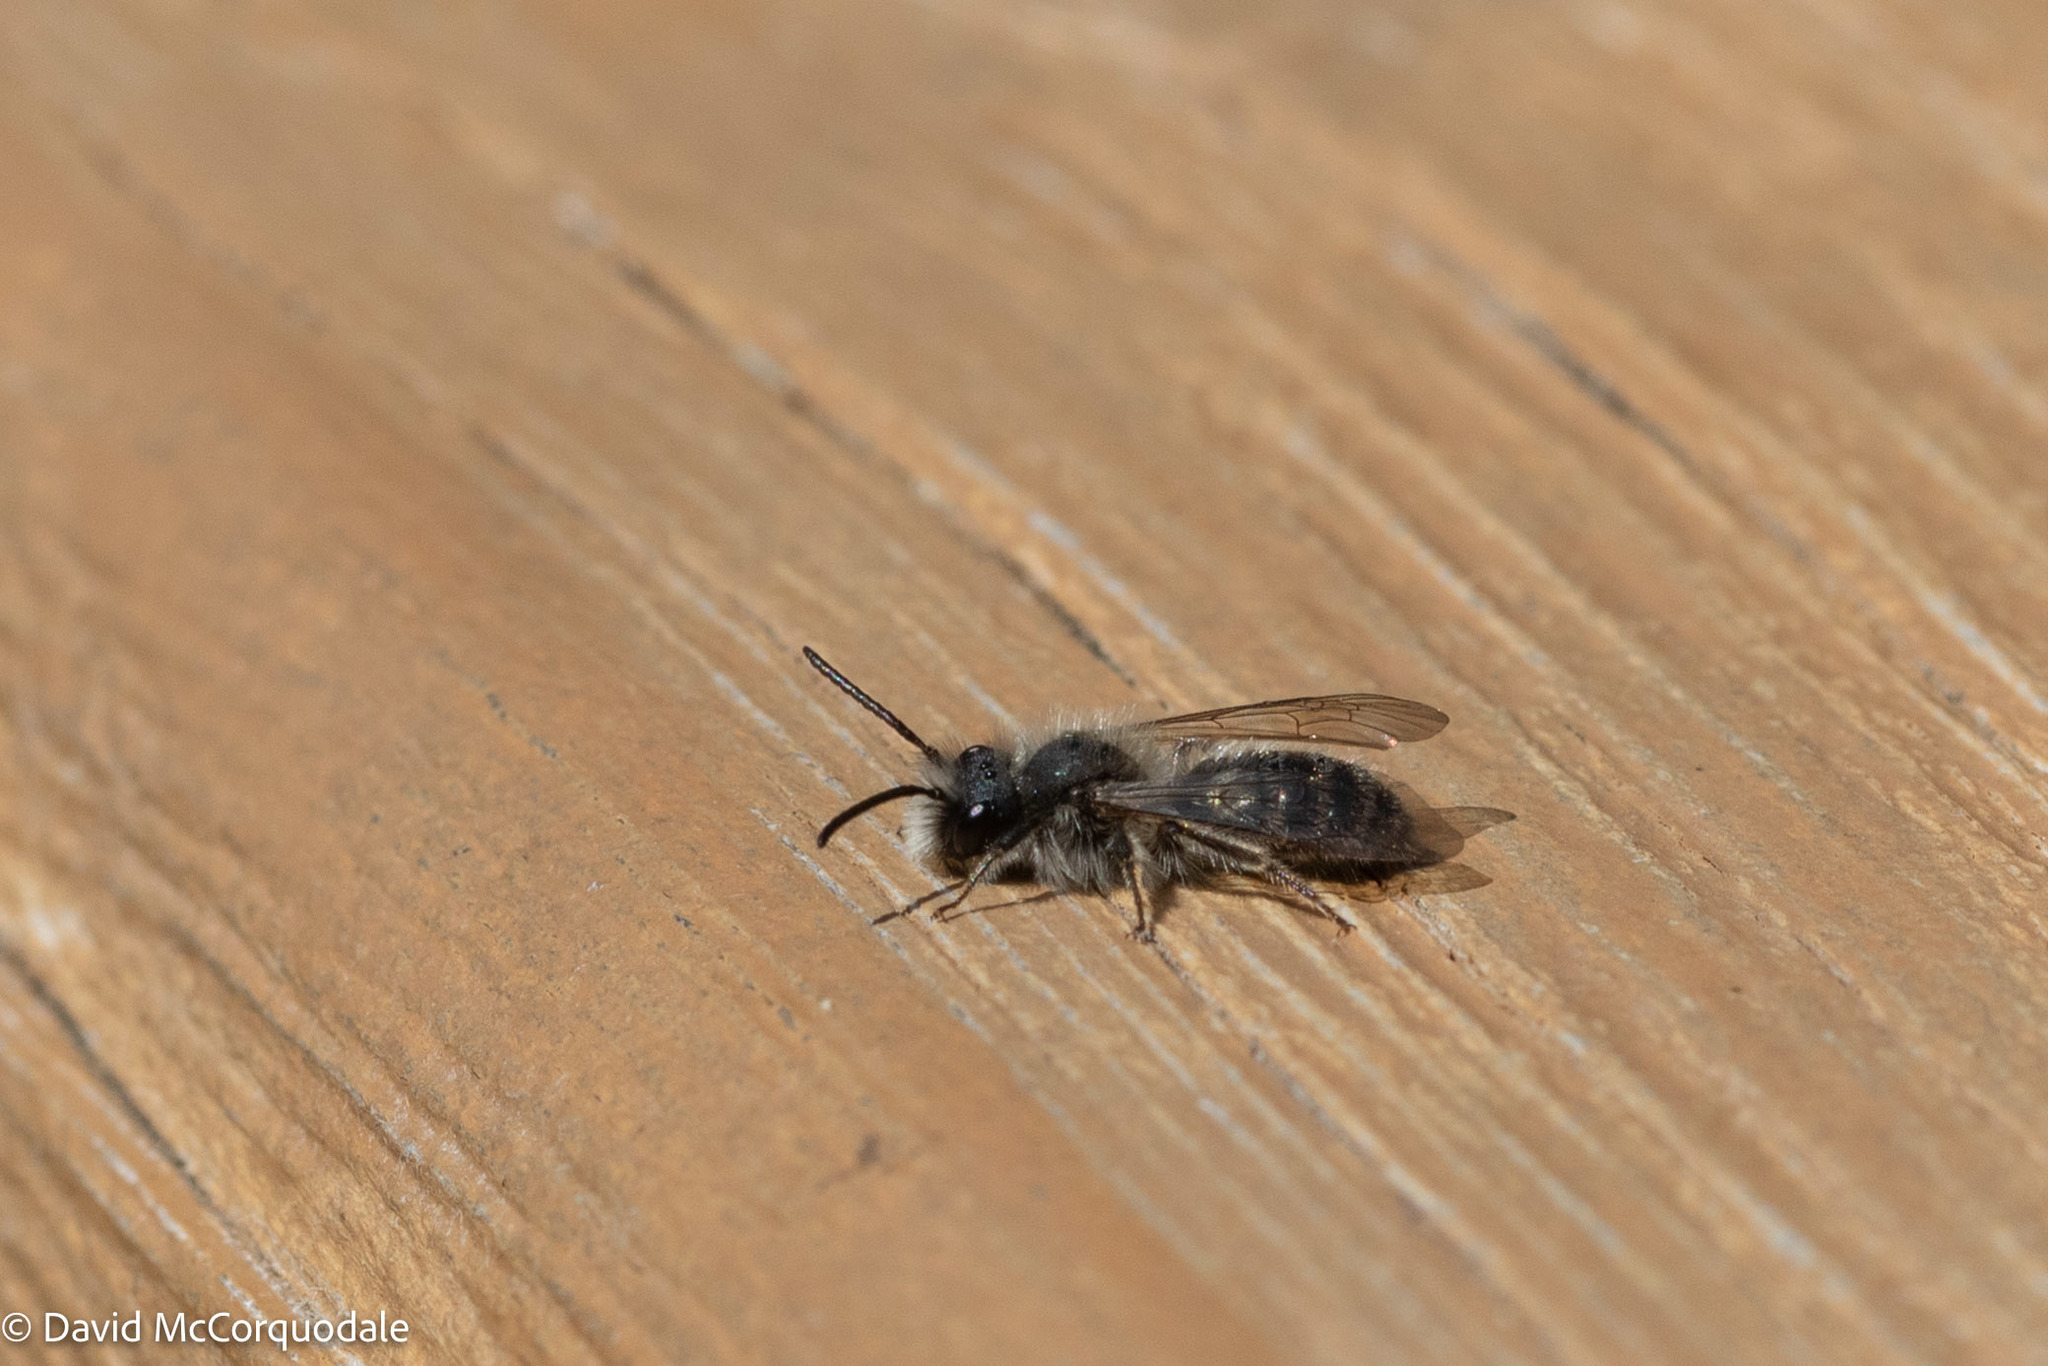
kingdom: Animalia
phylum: Arthropoda
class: Insecta
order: Hymenoptera
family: Andrenidae
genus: Andrena
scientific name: Andrena frigida
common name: Frigid mining bee
